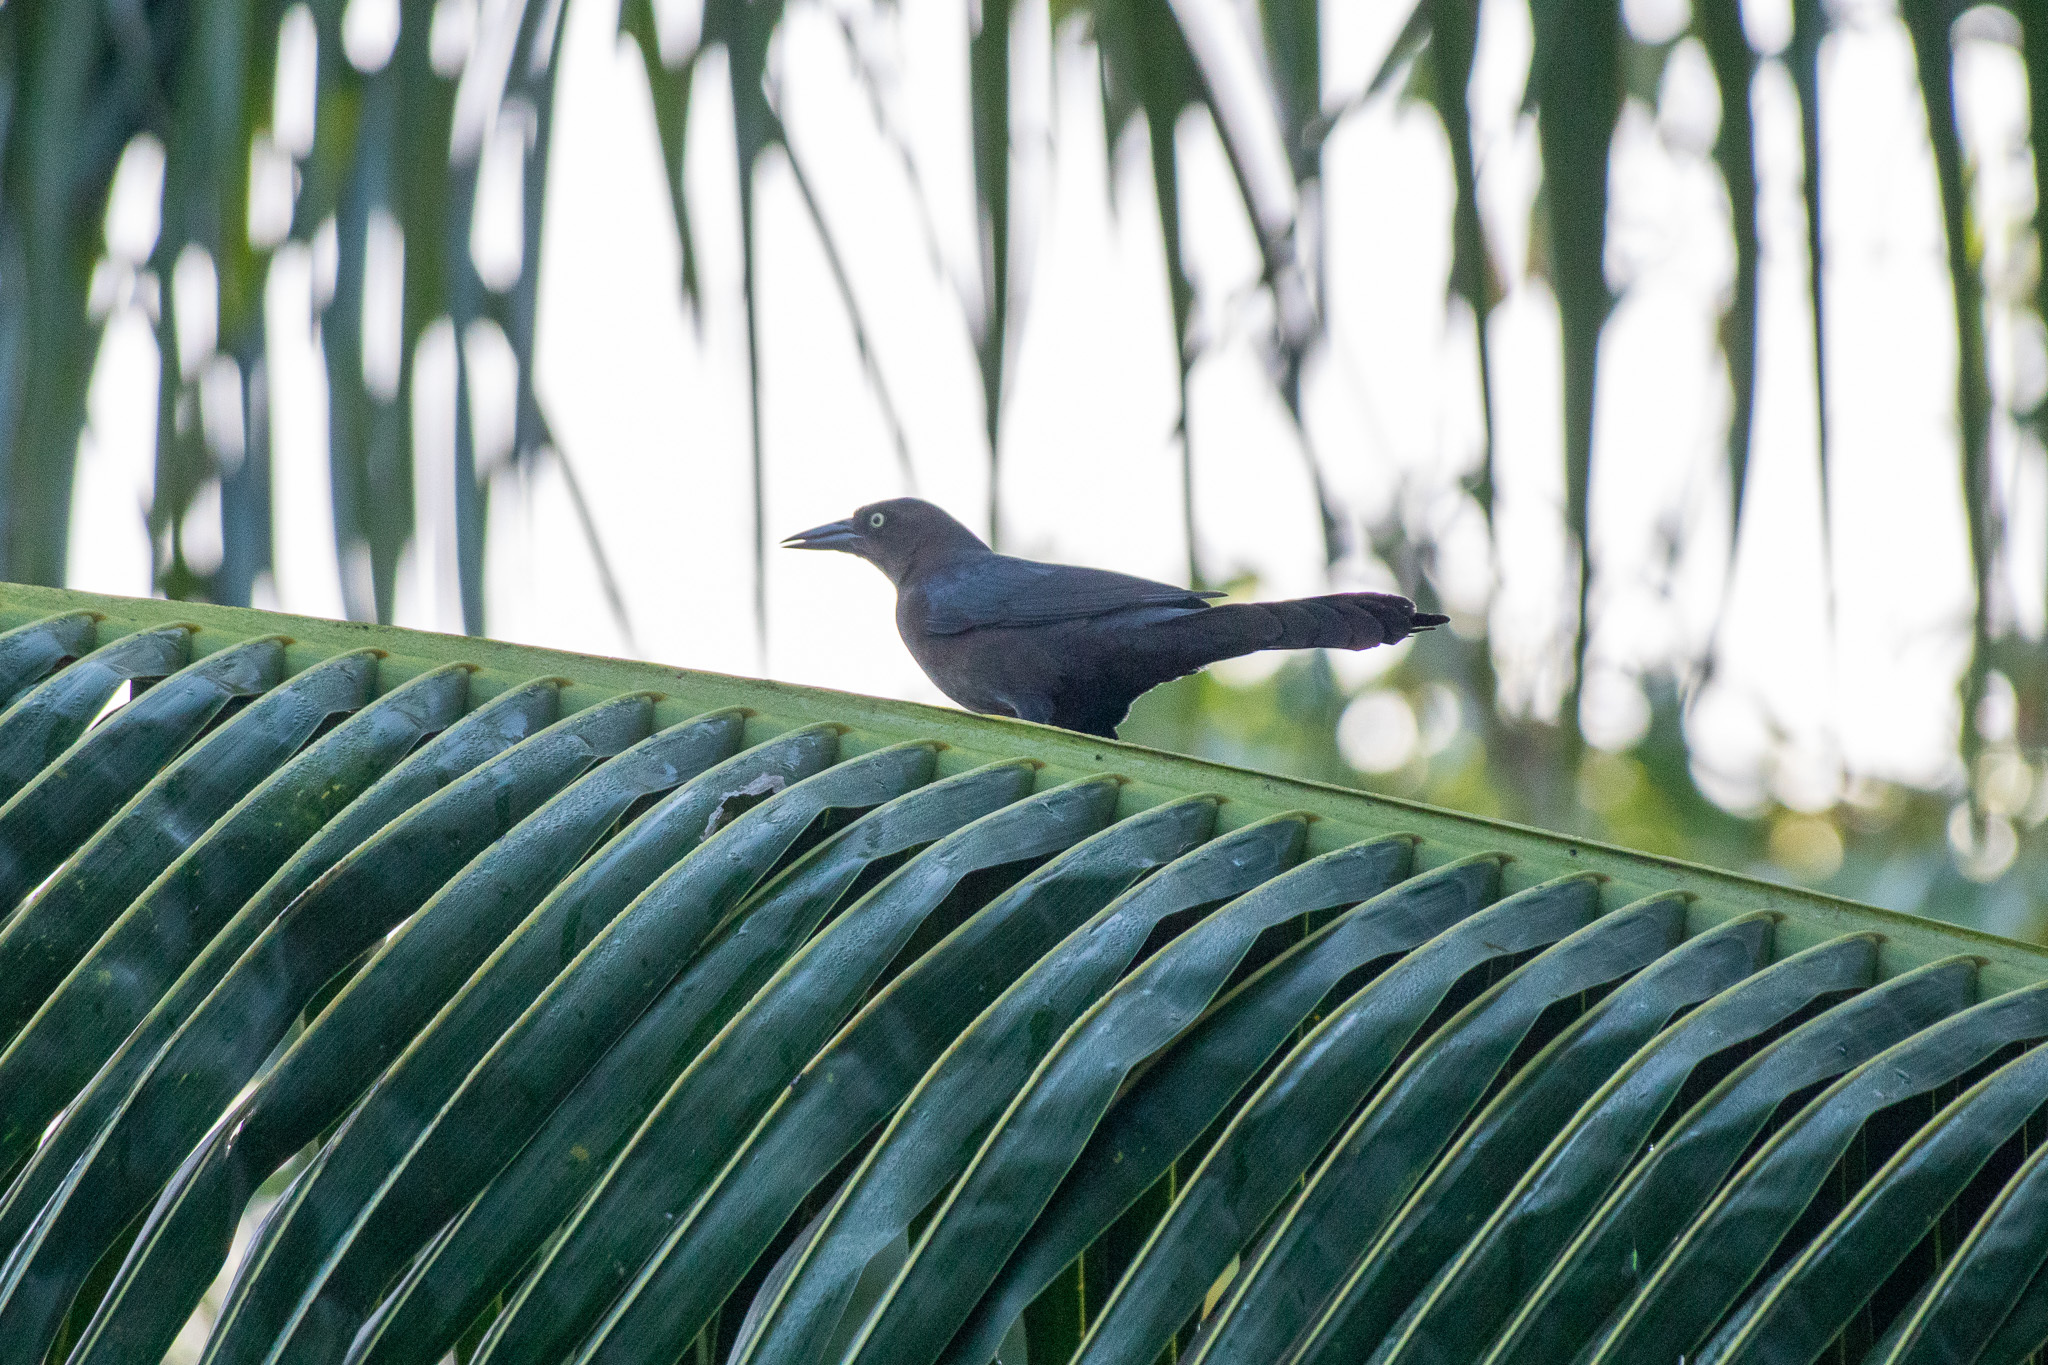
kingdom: Animalia
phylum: Chordata
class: Aves
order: Passeriformes
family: Icteridae
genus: Quiscalus
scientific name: Quiscalus mexicanus
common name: Great-tailed grackle
